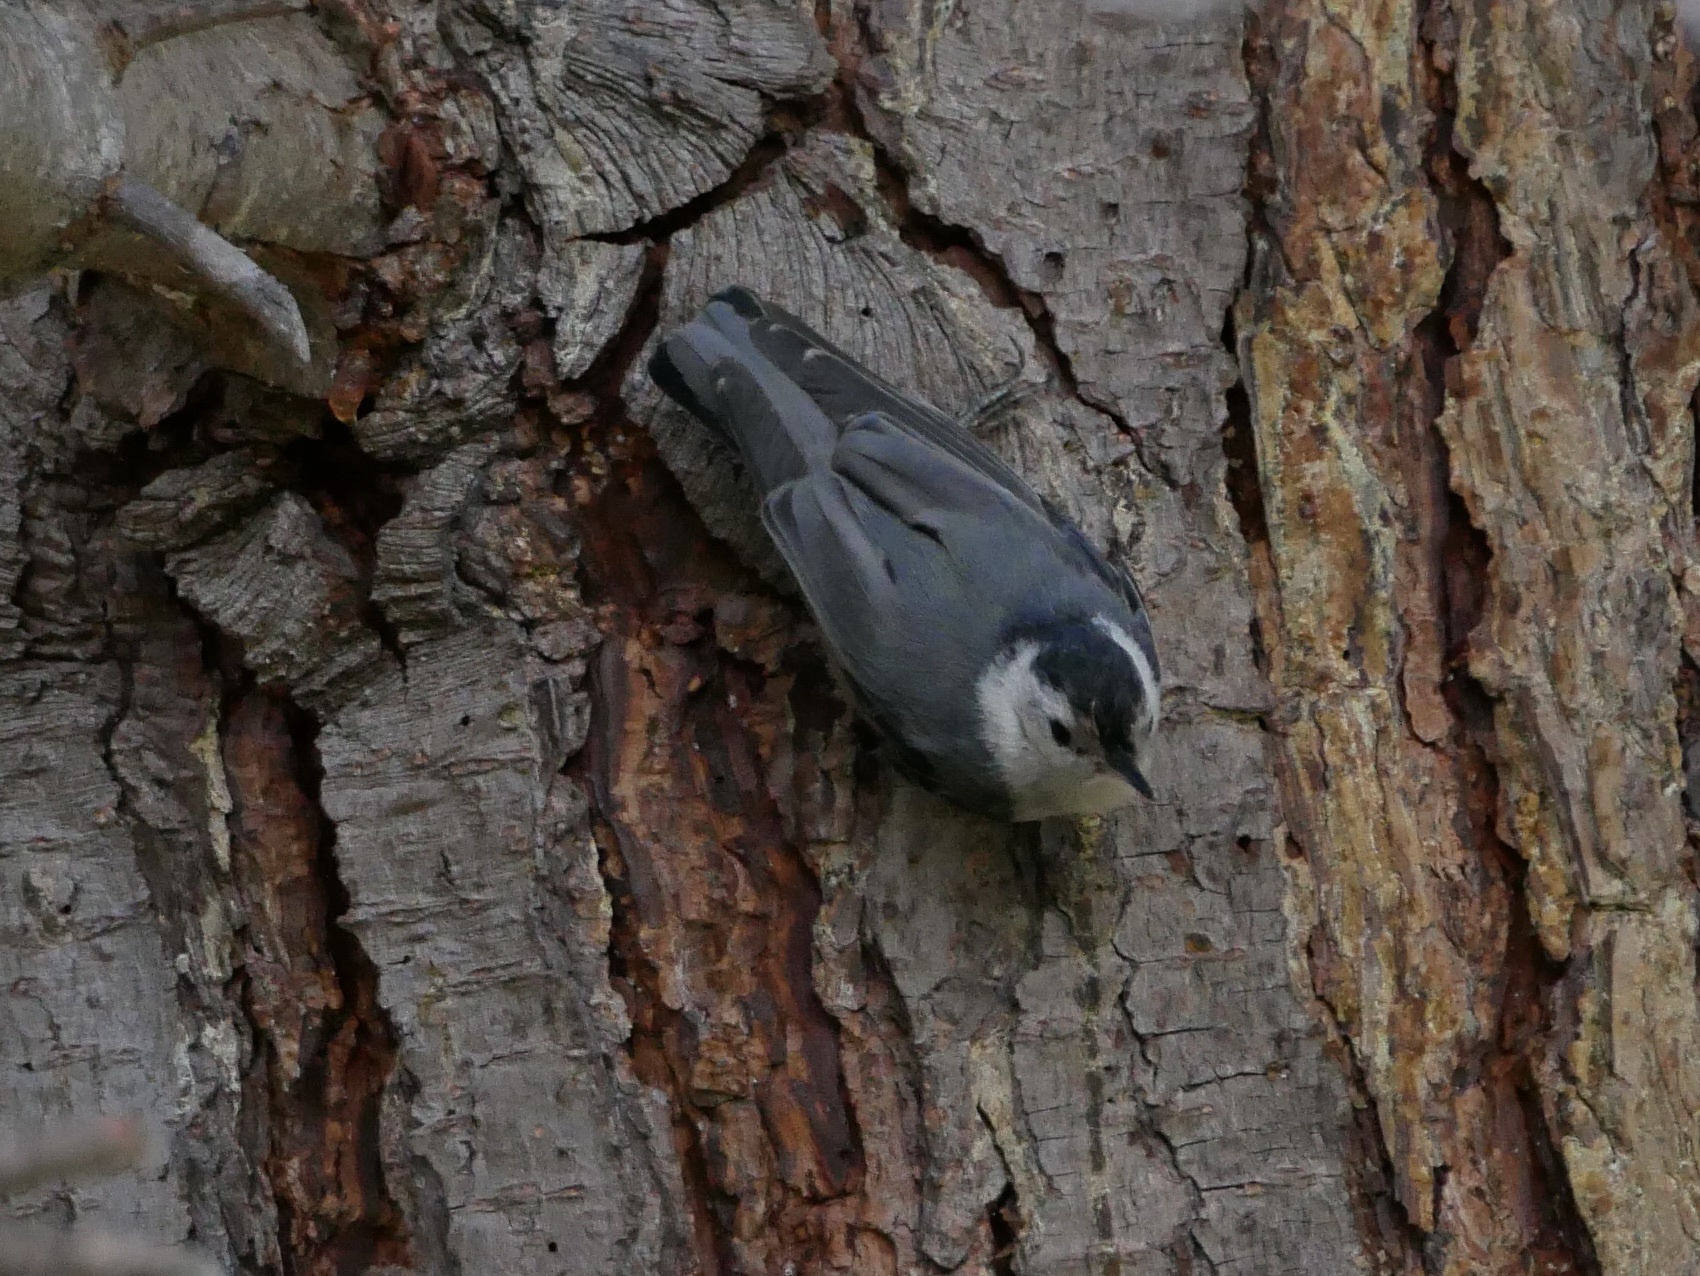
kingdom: Animalia
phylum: Chordata
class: Aves
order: Passeriformes
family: Sittidae
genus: Sitta
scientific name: Sitta carolinensis
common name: White-breasted nuthatch
